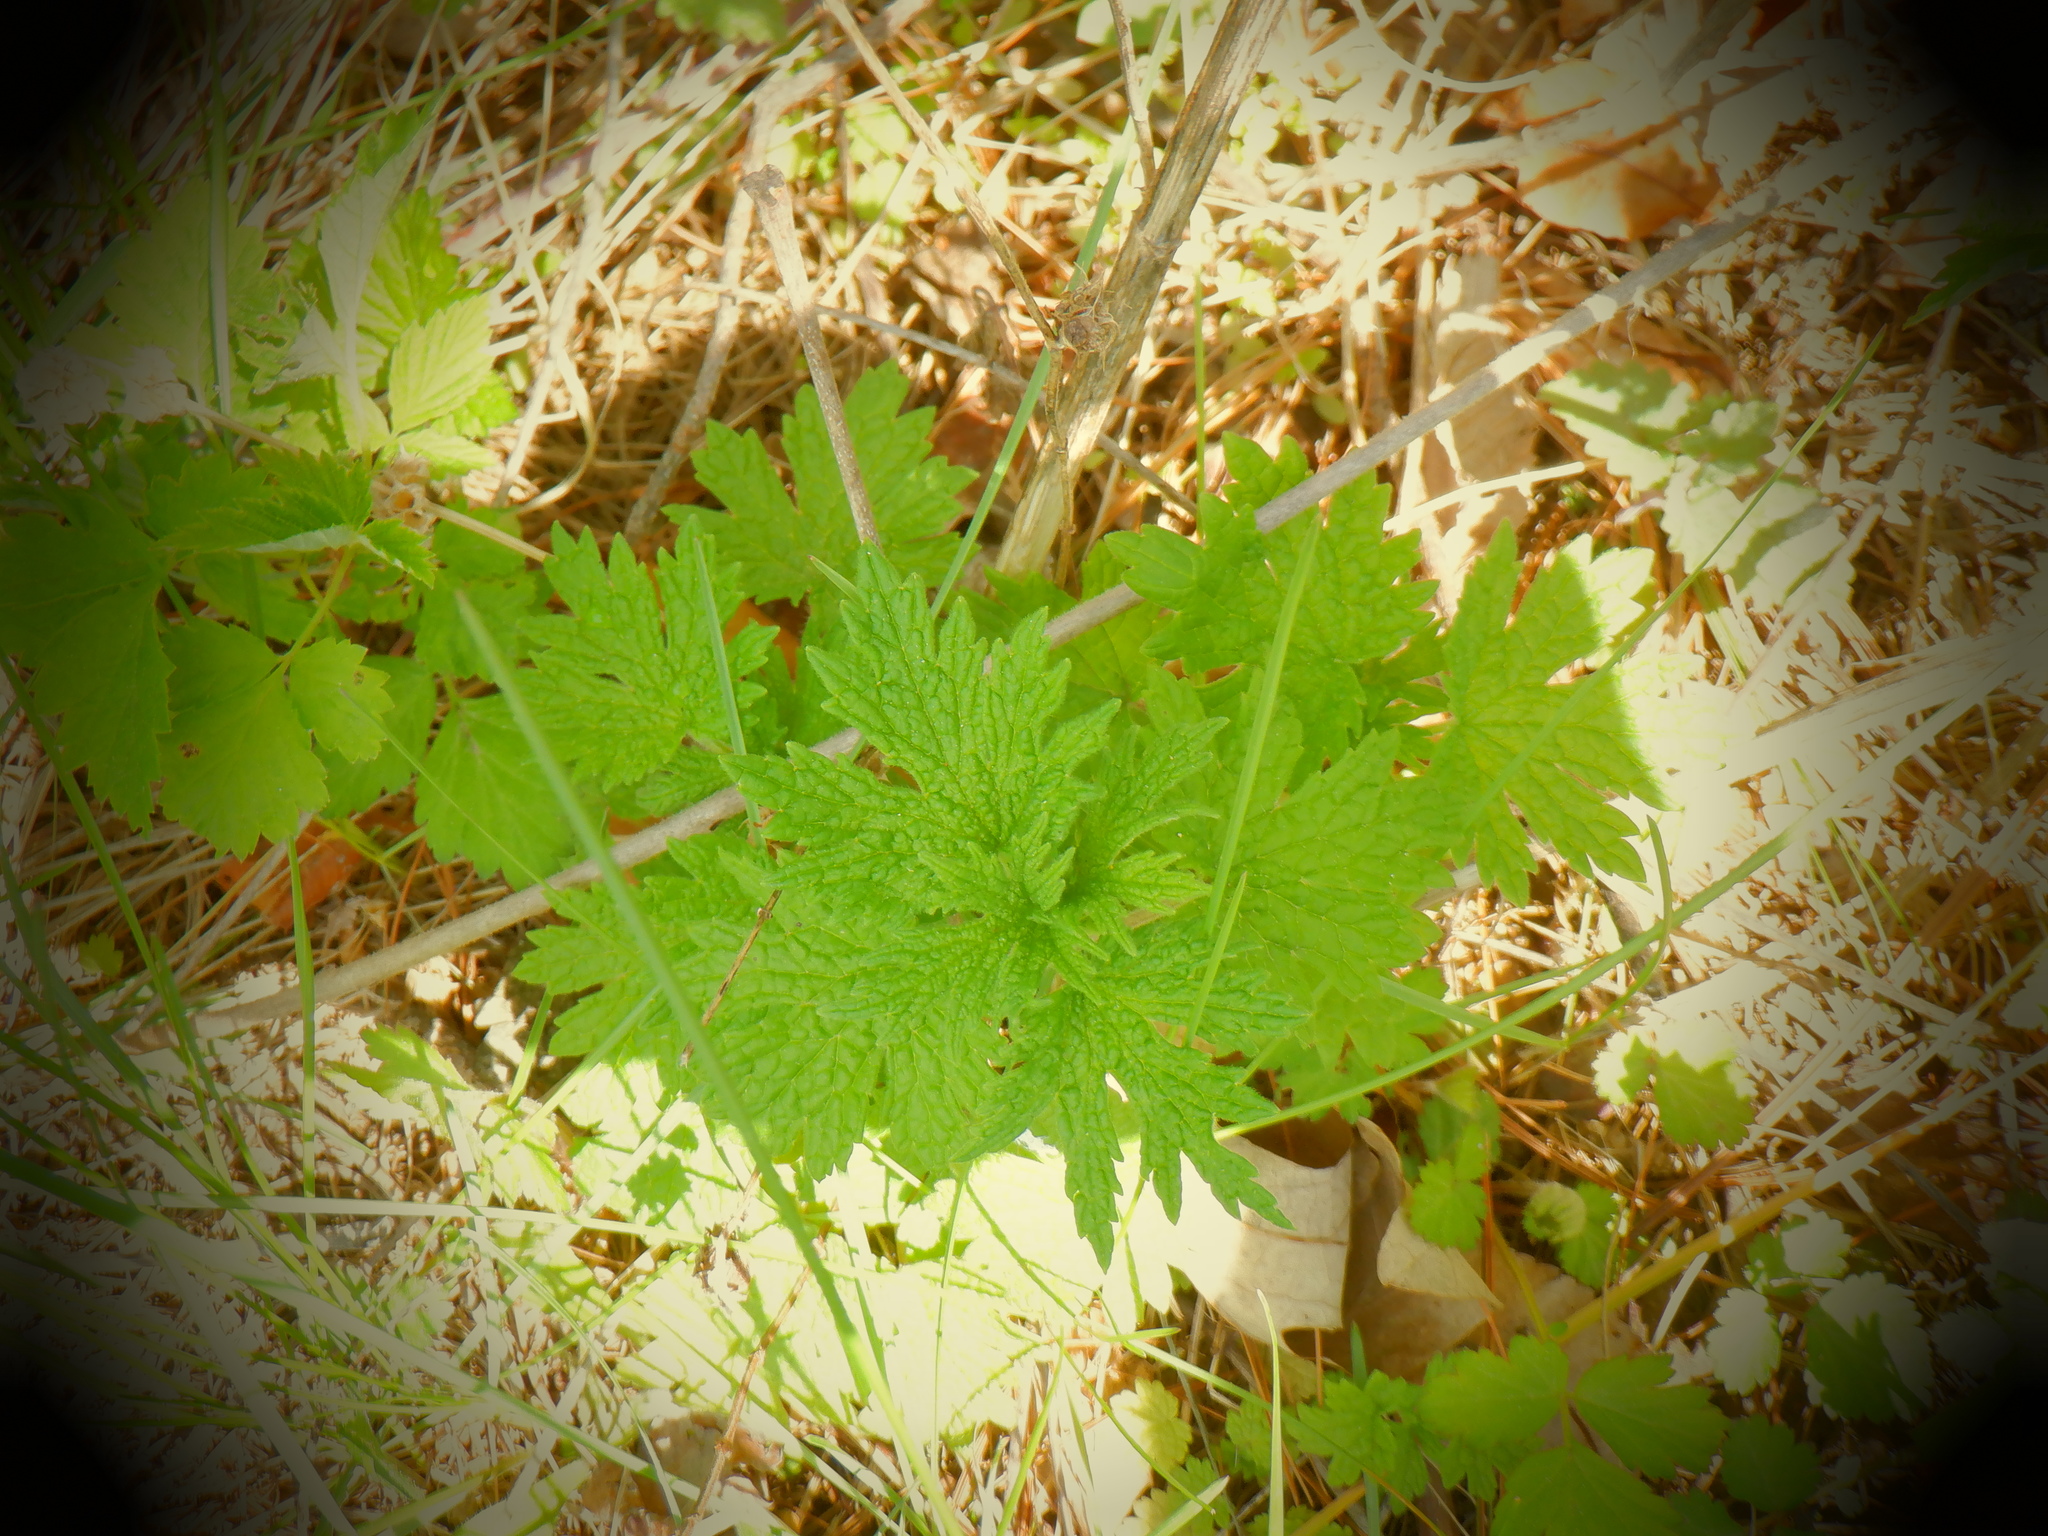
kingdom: Plantae
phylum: Tracheophyta
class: Magnoliopsida
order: Lamiales
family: Lamiaceae
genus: Leonurus
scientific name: Leonurus cardiaca
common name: Motherwort
